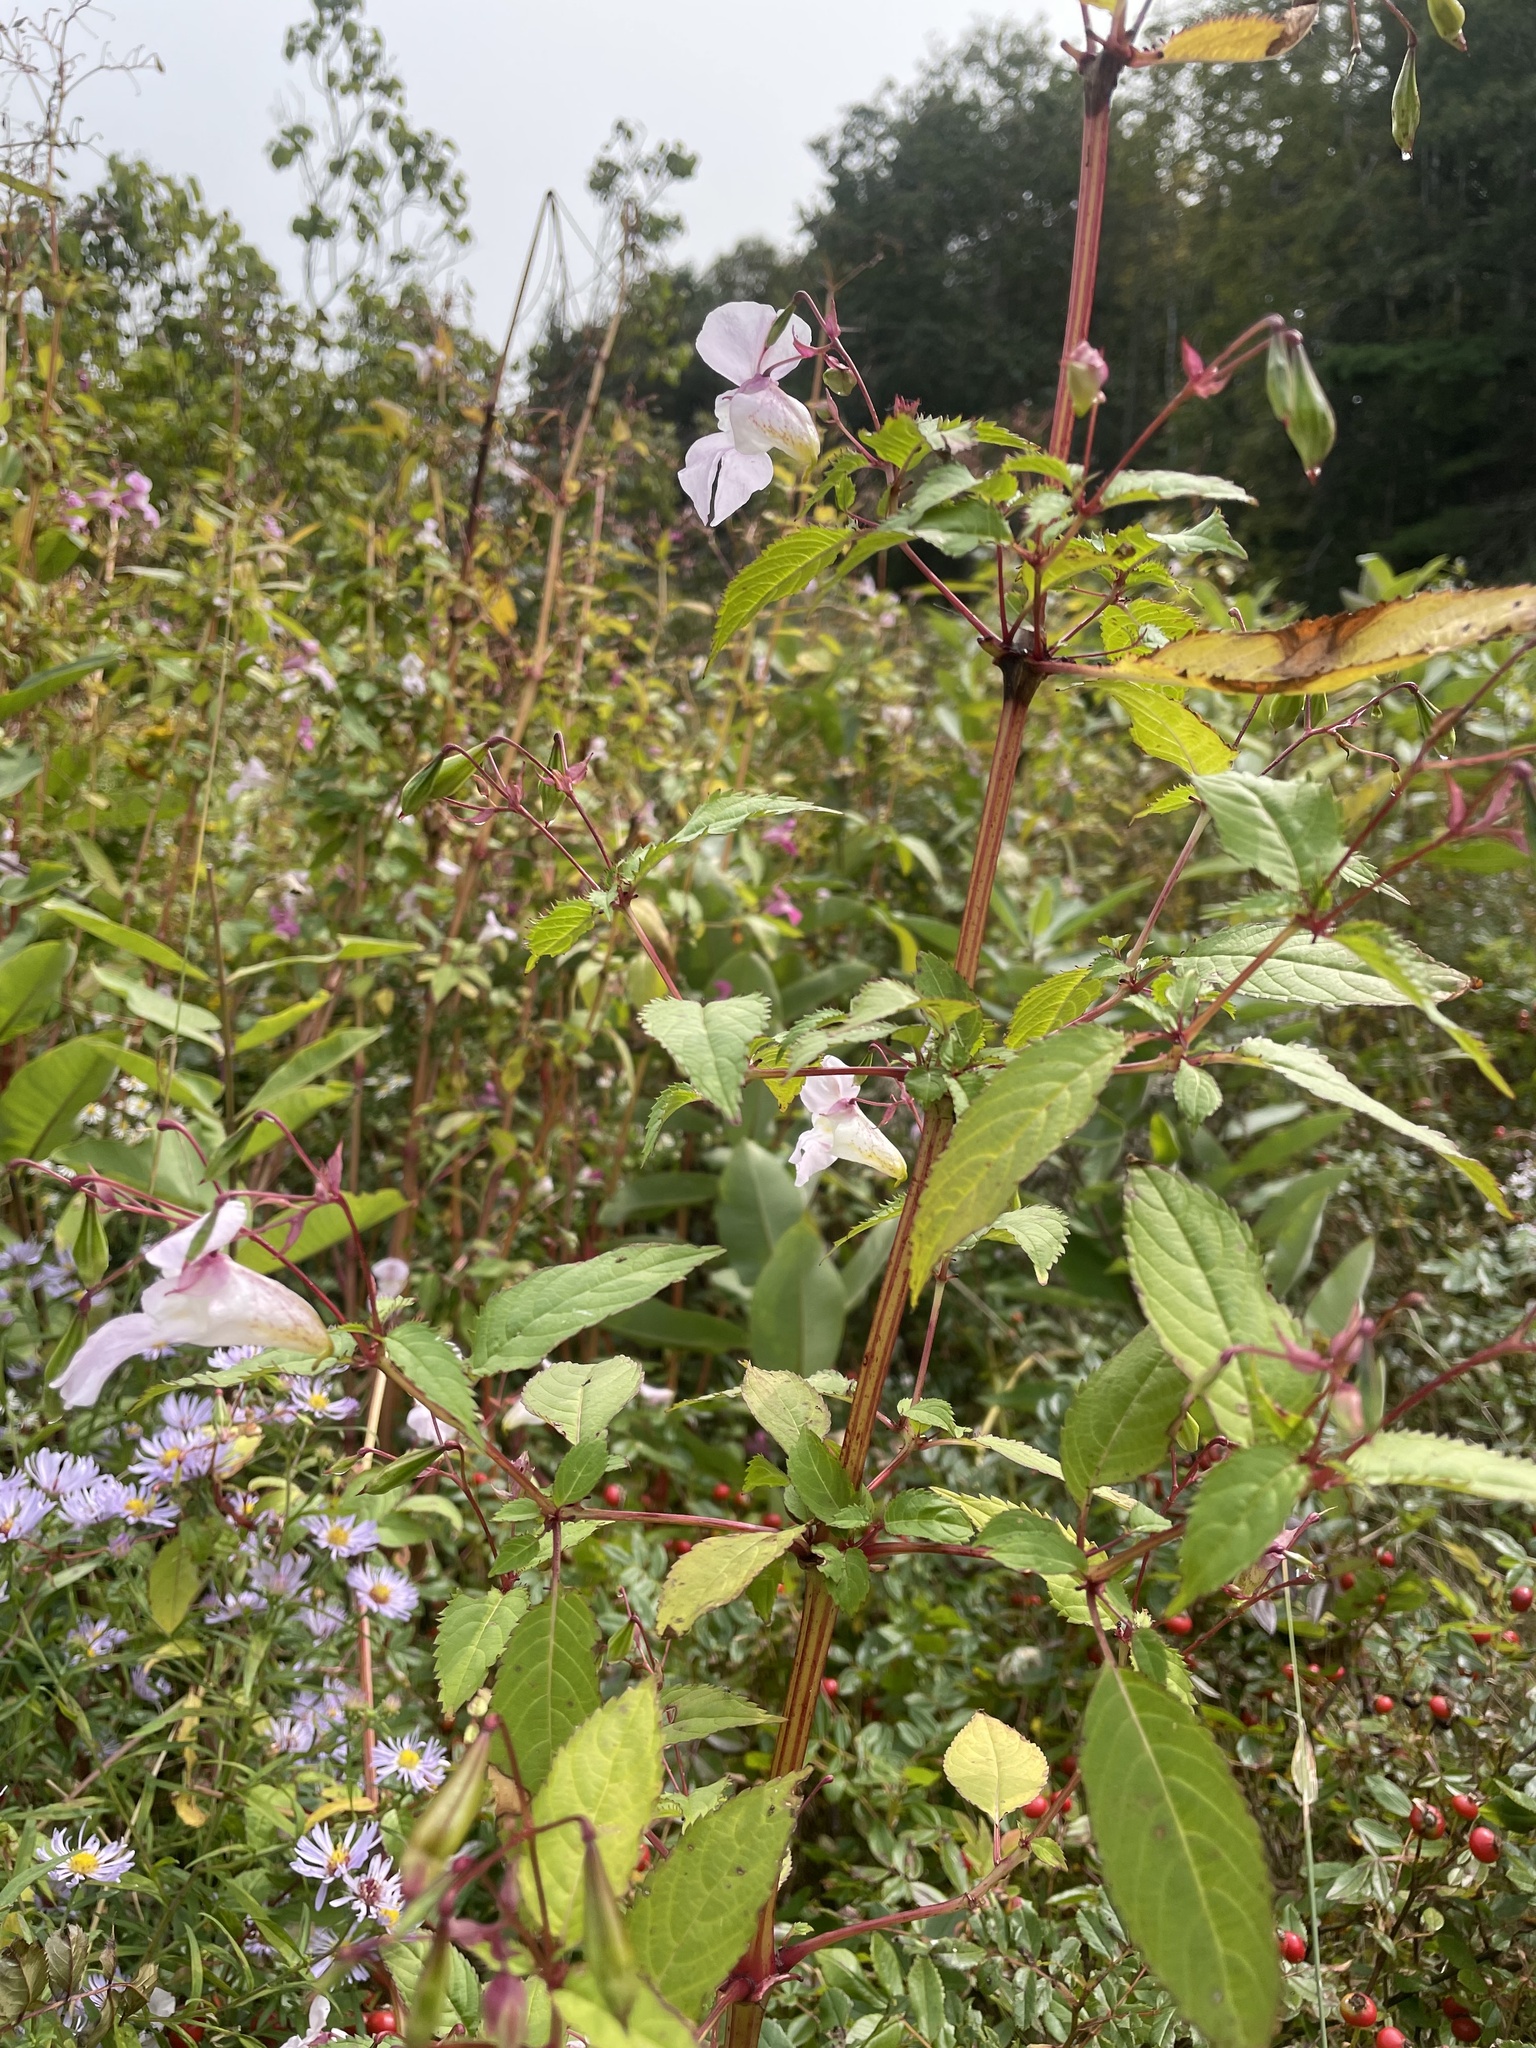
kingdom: Plantae
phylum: Tracheophyta
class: Magnoliopsida
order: Ericales
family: Balsaminaceae
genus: Impatiens
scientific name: Impatiens glandulifera
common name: Himalayan balsam
